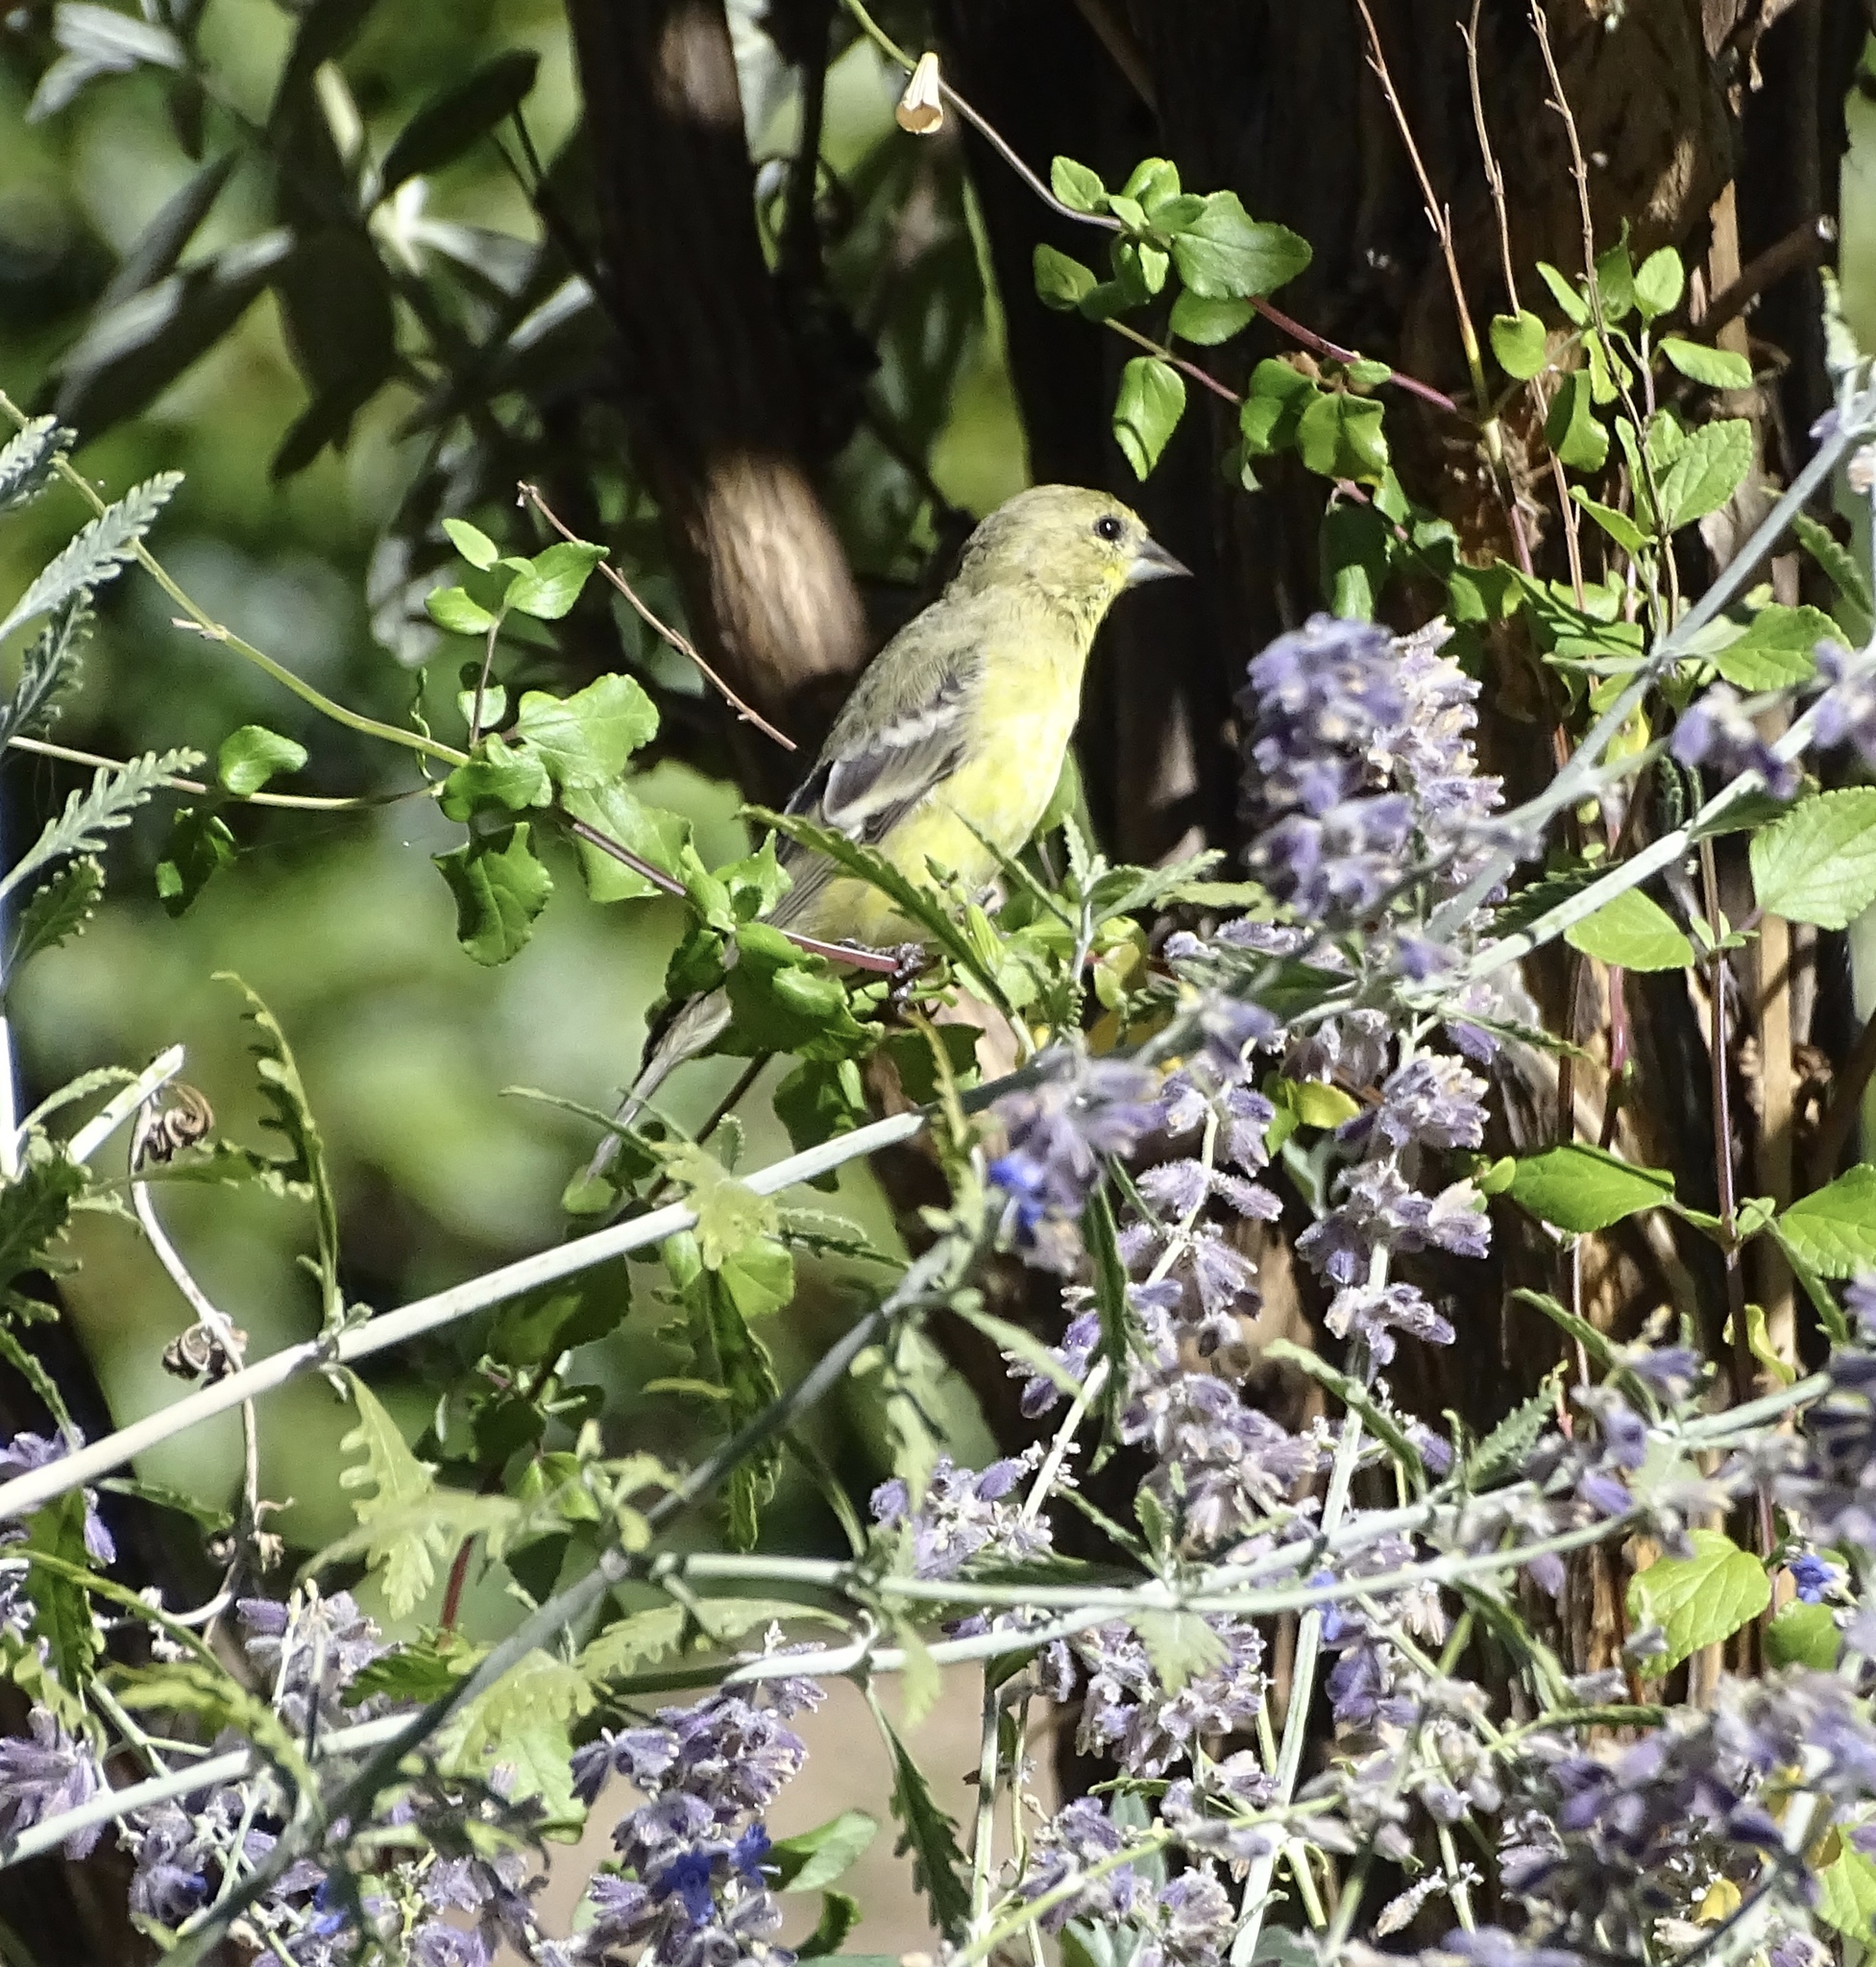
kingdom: Animalia
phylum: Chordata
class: Aves
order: Passeriformes
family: Fringillidae
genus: Spinus
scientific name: Spinus psaltria
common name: Lesser goldfinch
